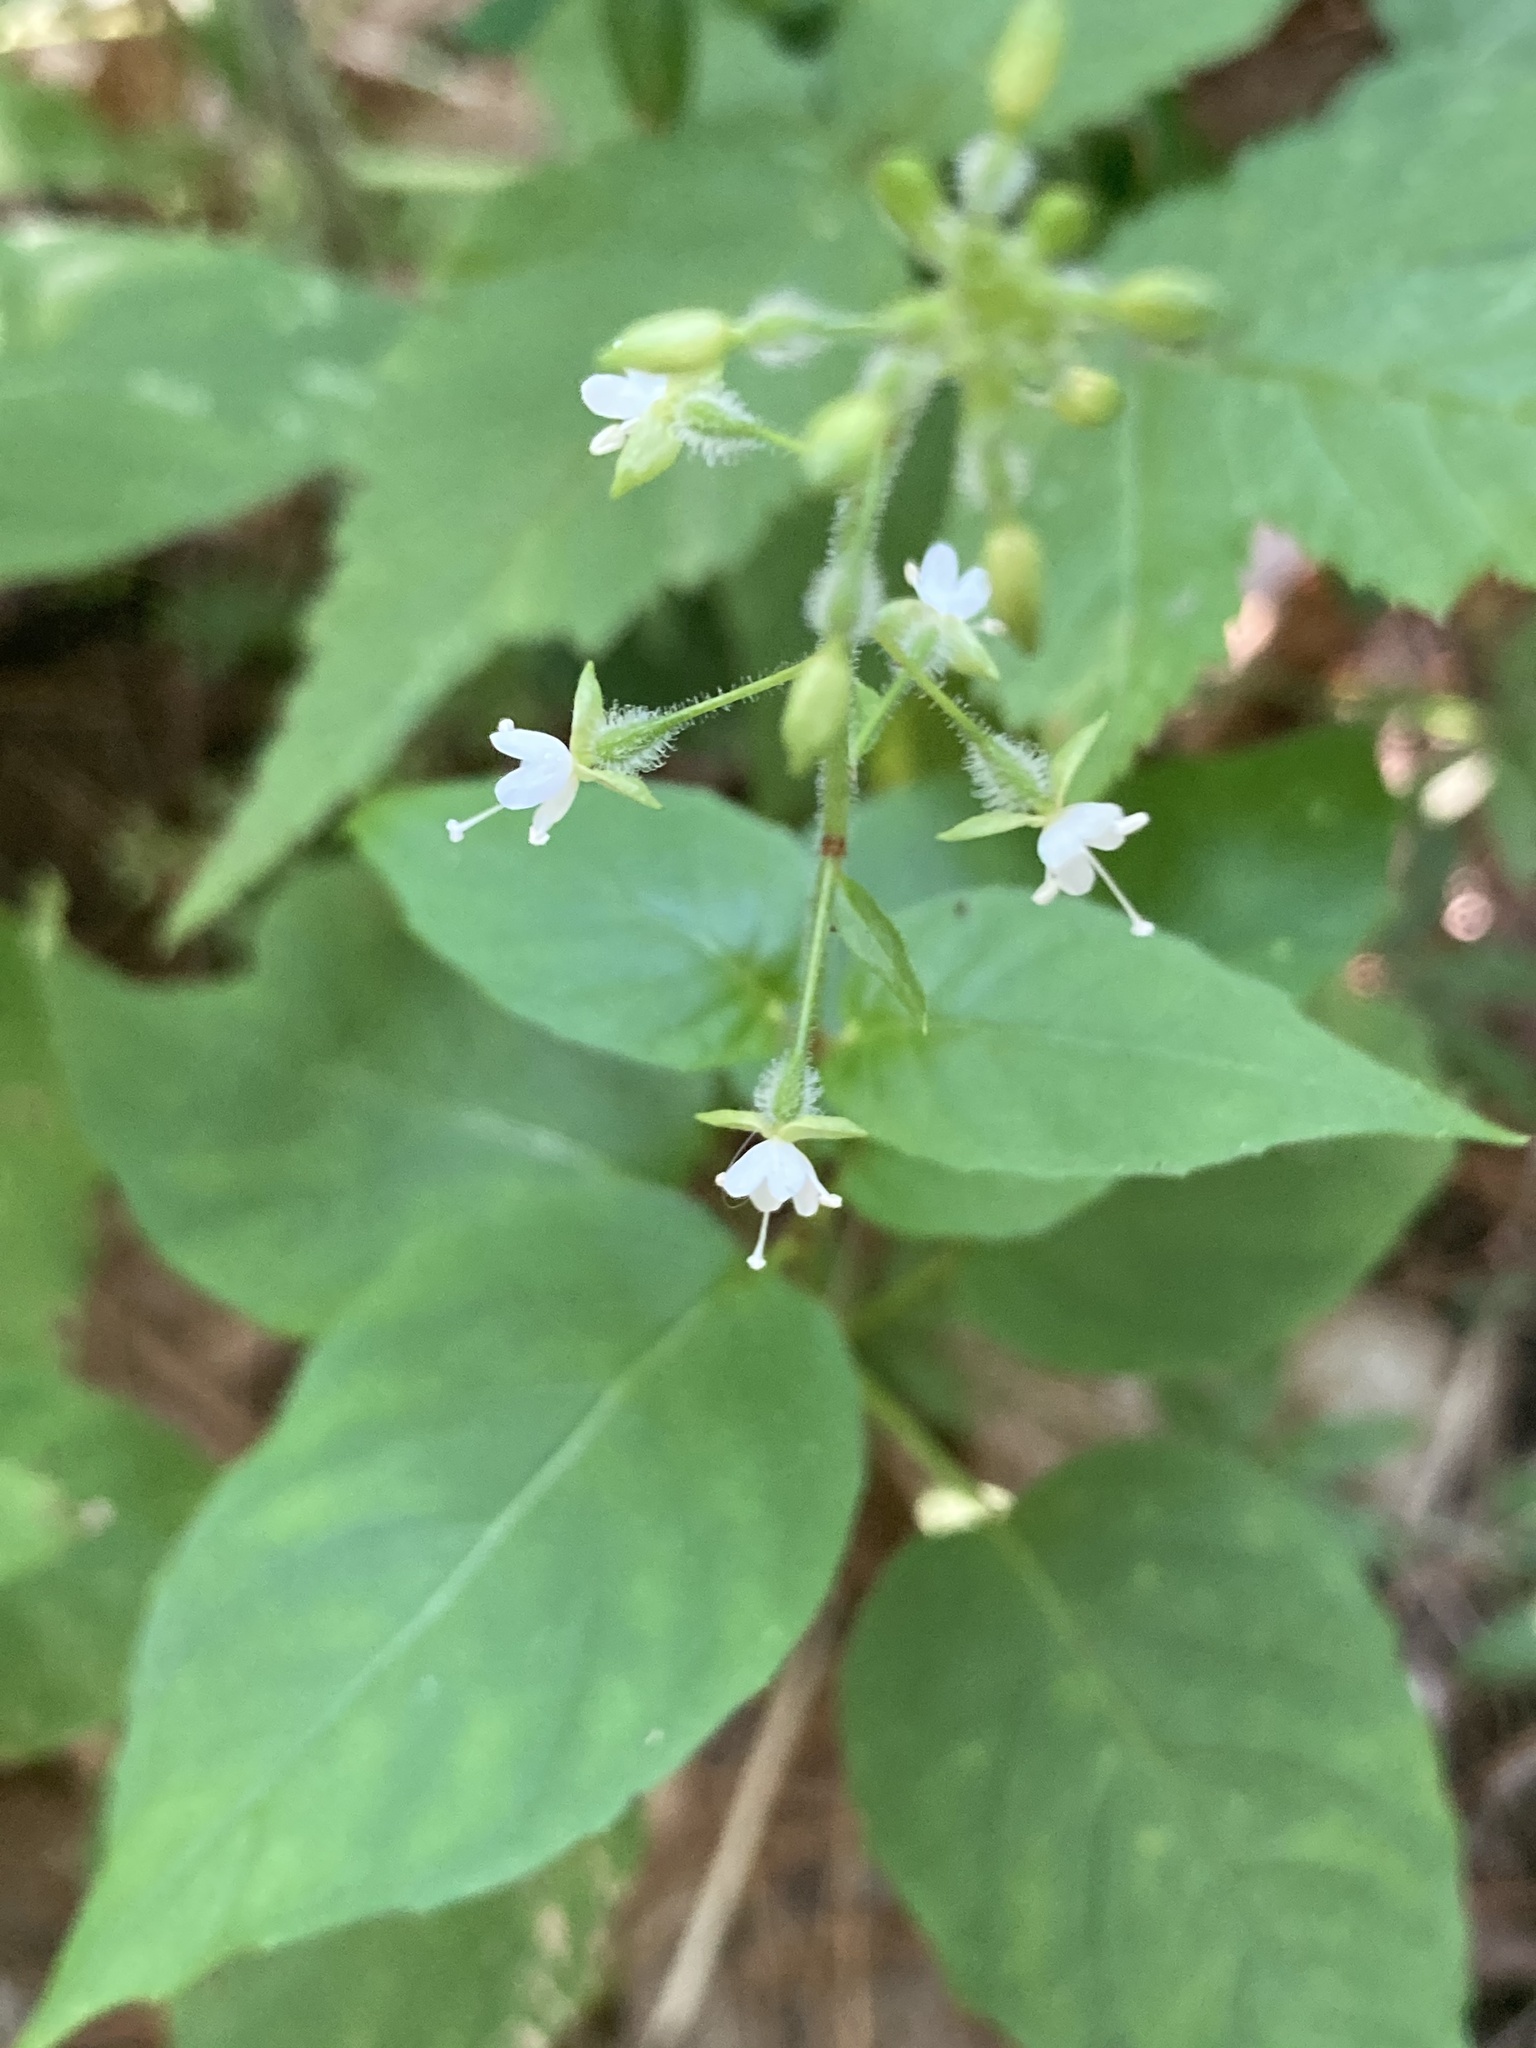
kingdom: Plantae
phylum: Tracheophyta
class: Magnoliopsida
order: Myrtales
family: Onagraceae
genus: Circaea
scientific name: Circaea canadensis
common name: Broad-leaved enchanter's nightshade
